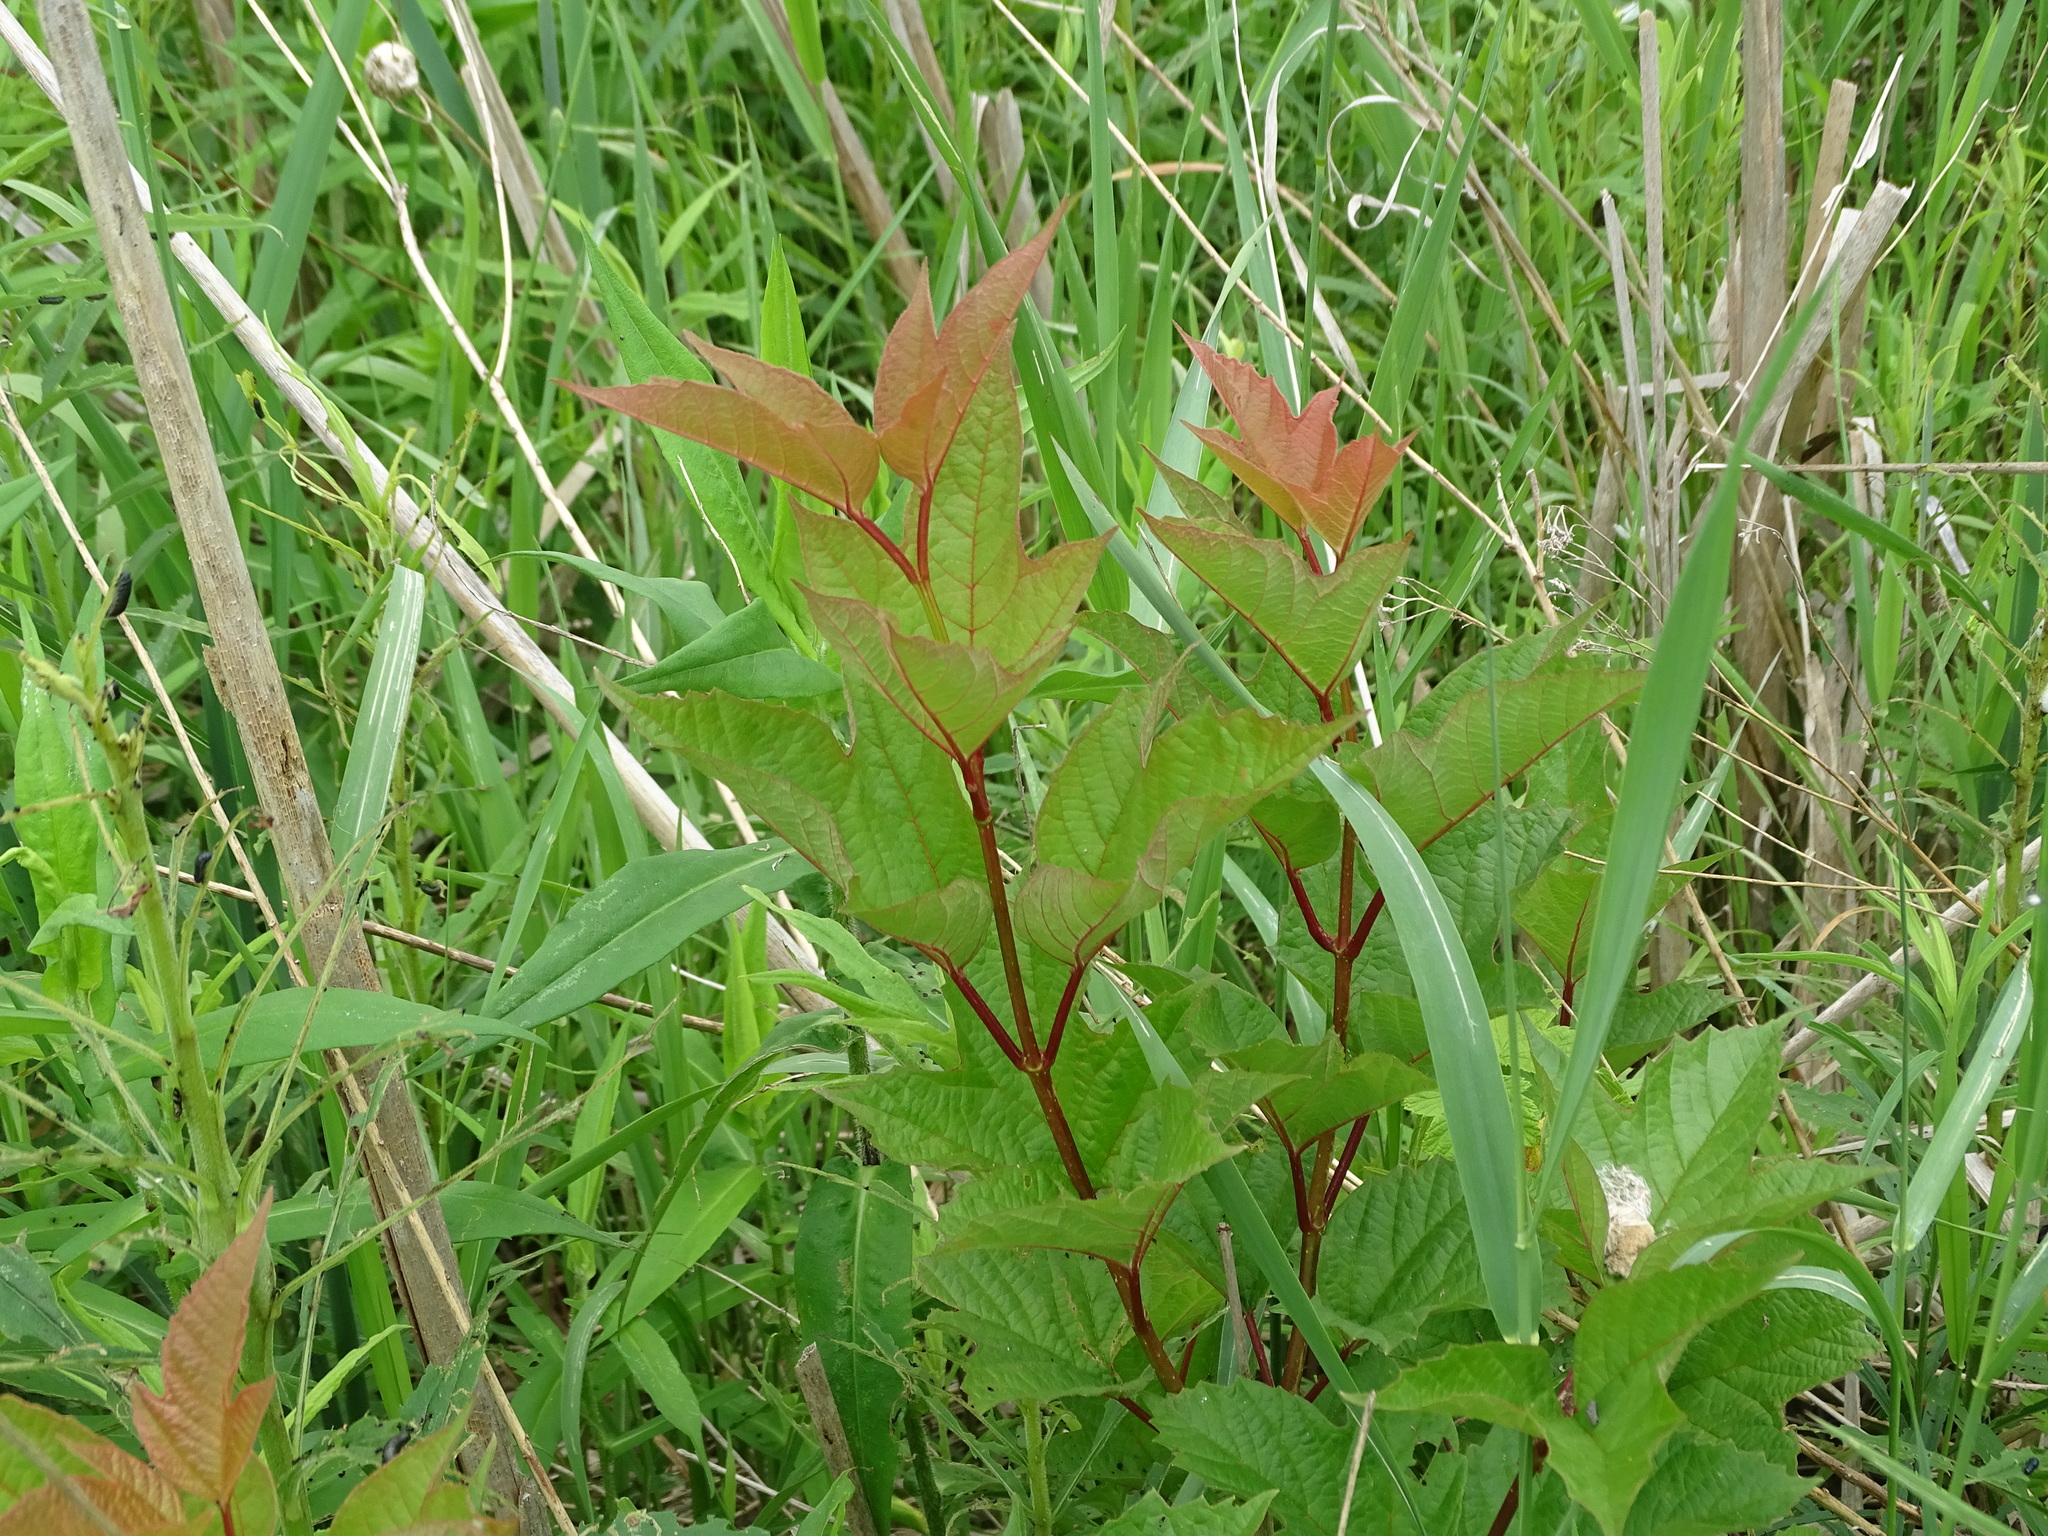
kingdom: Plantae
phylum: Tracheophyta
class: Magnoliopsida
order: Dipsacales
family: Viburnaceae
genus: Viburnum
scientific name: Viburnum opulus
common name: Guelder-rose
